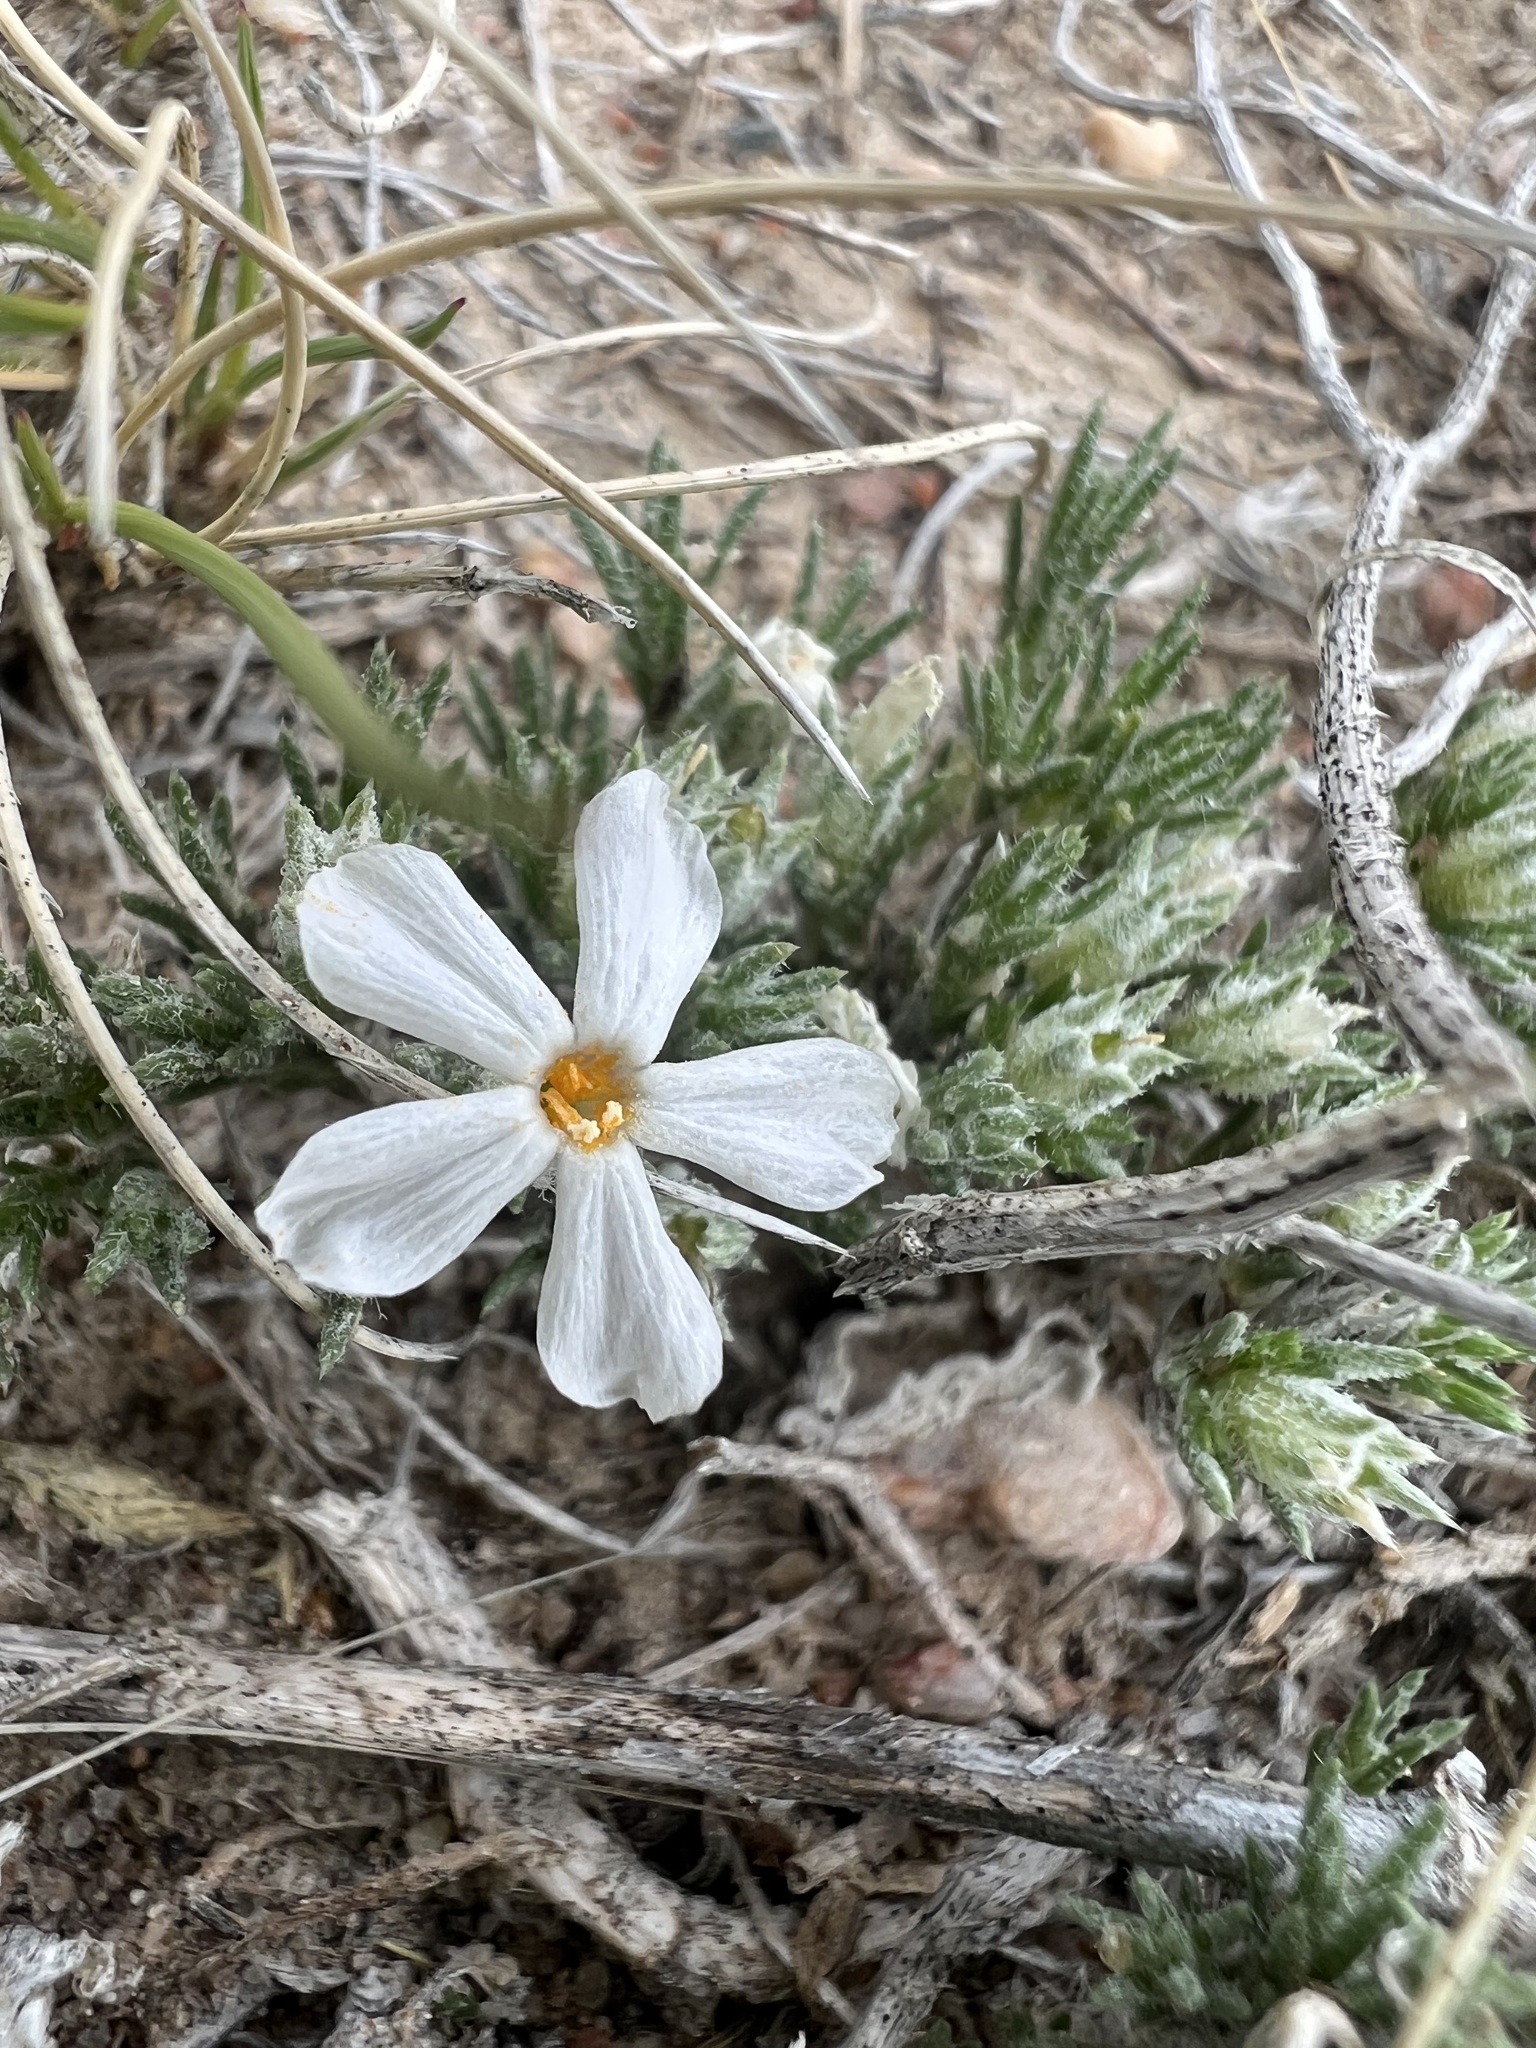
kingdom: Plantae
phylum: Tracheophyta
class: Magnoliopsida
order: Ericales
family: Polemoniaceae
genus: Phlox
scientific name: Phlox hoodii
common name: Moss phlox
